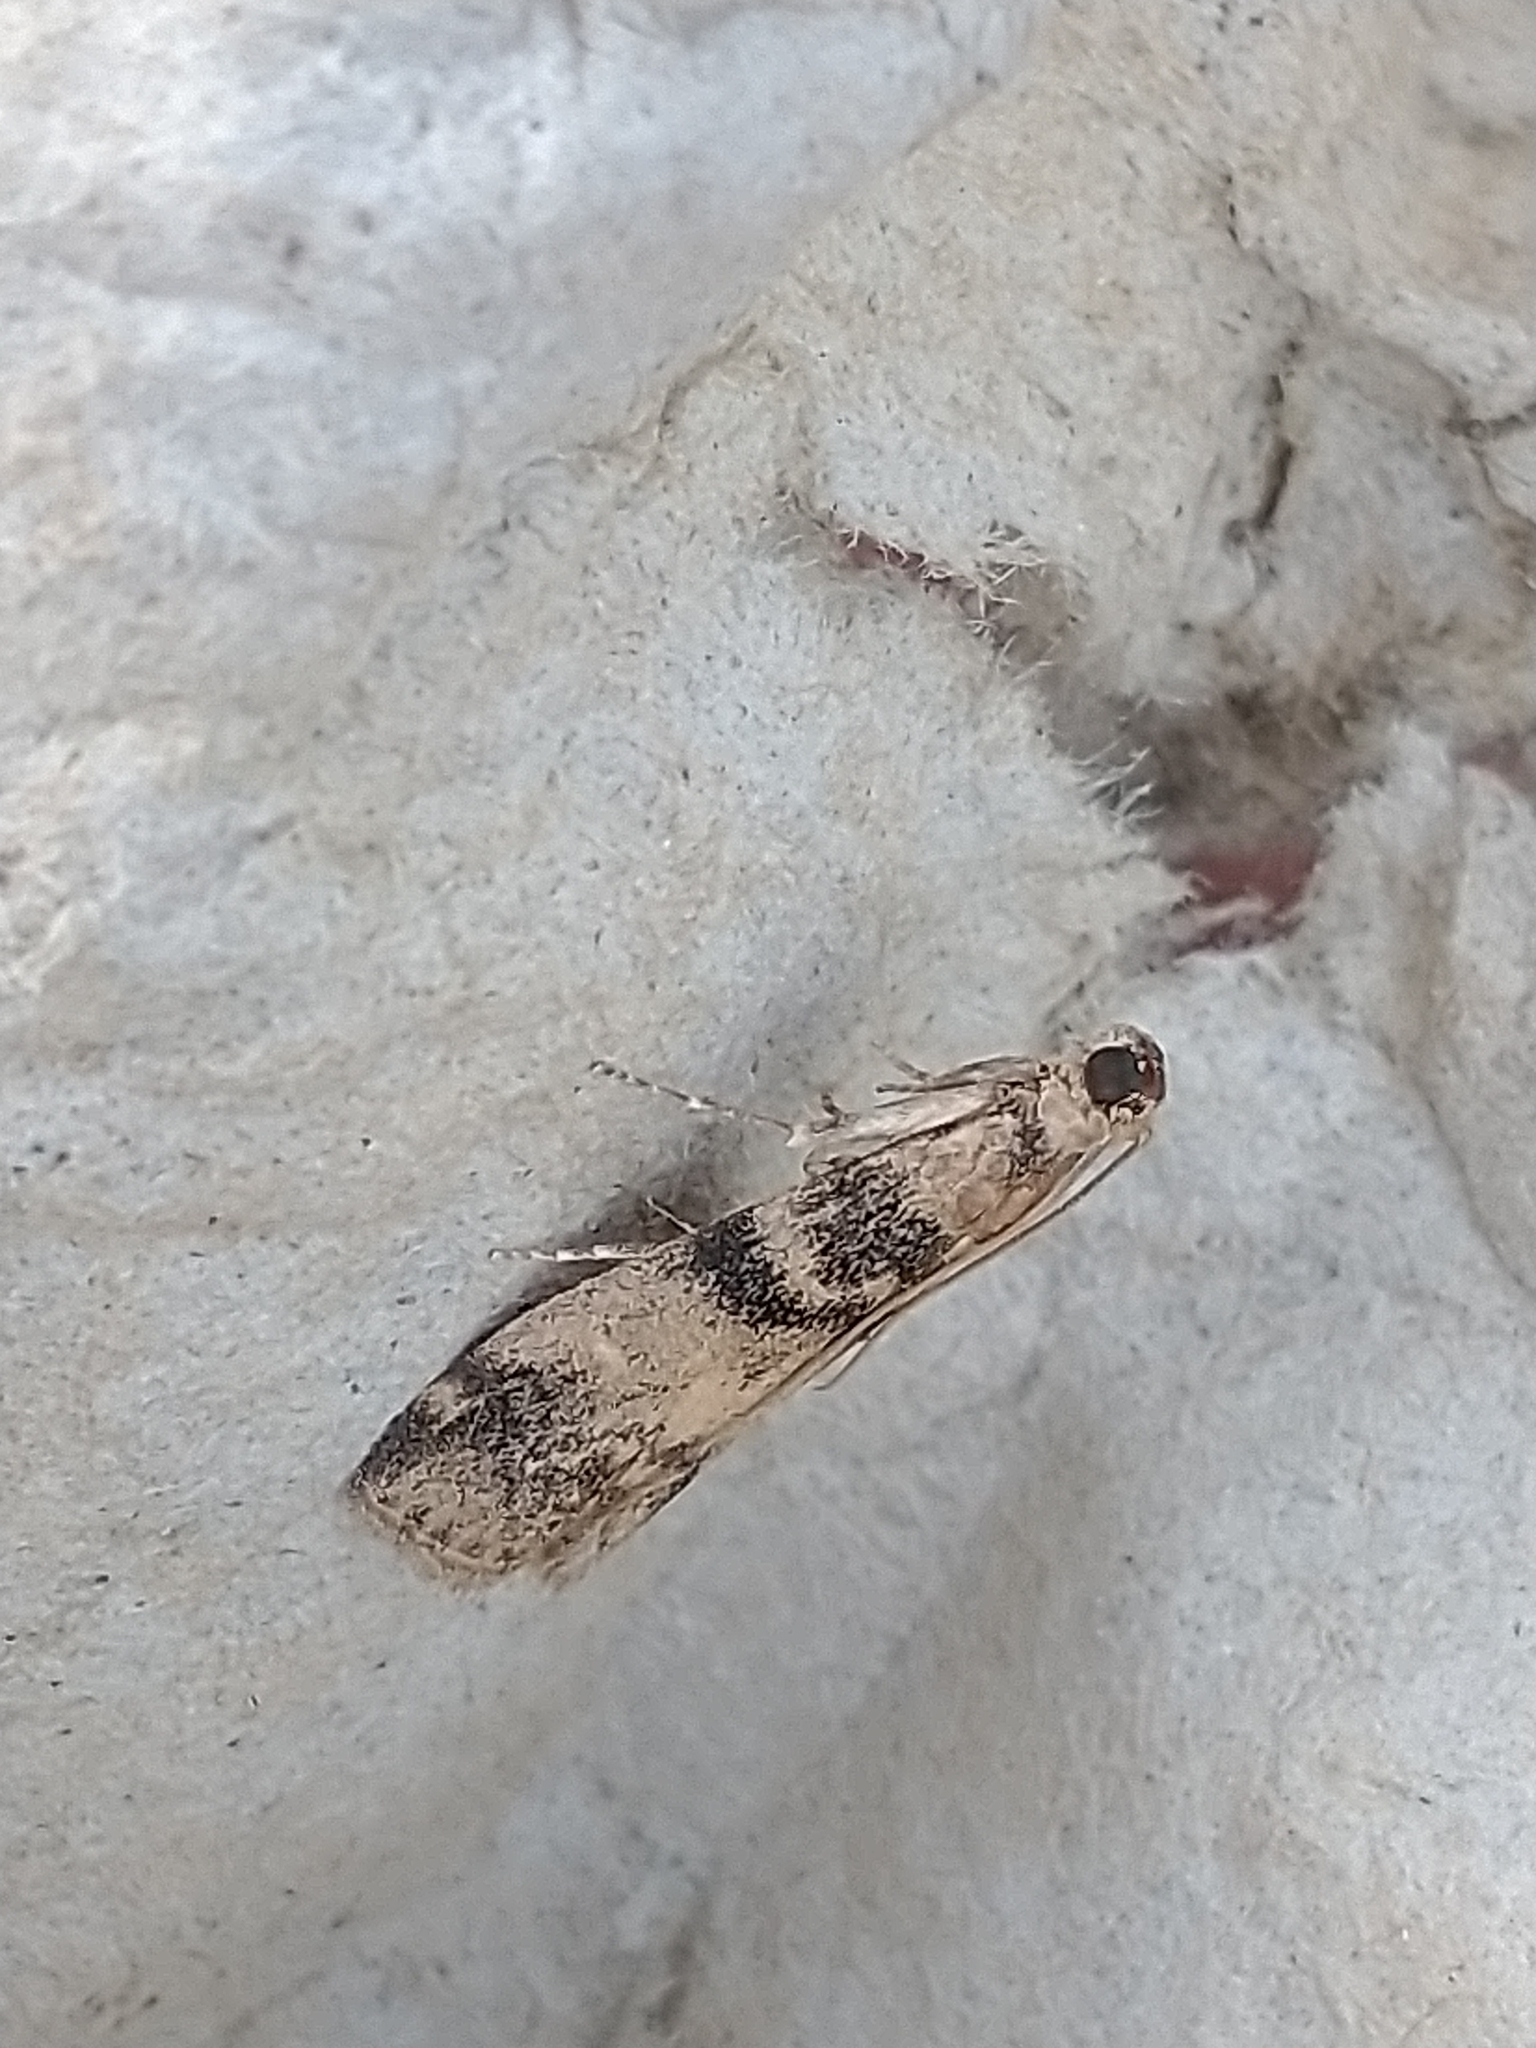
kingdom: Animalia
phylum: Arthropoda
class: Insecta
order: Lepidoptera
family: Pyralidae
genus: Euzophera
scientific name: Euzophera pinguis
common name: Ash-bark knot-horn
